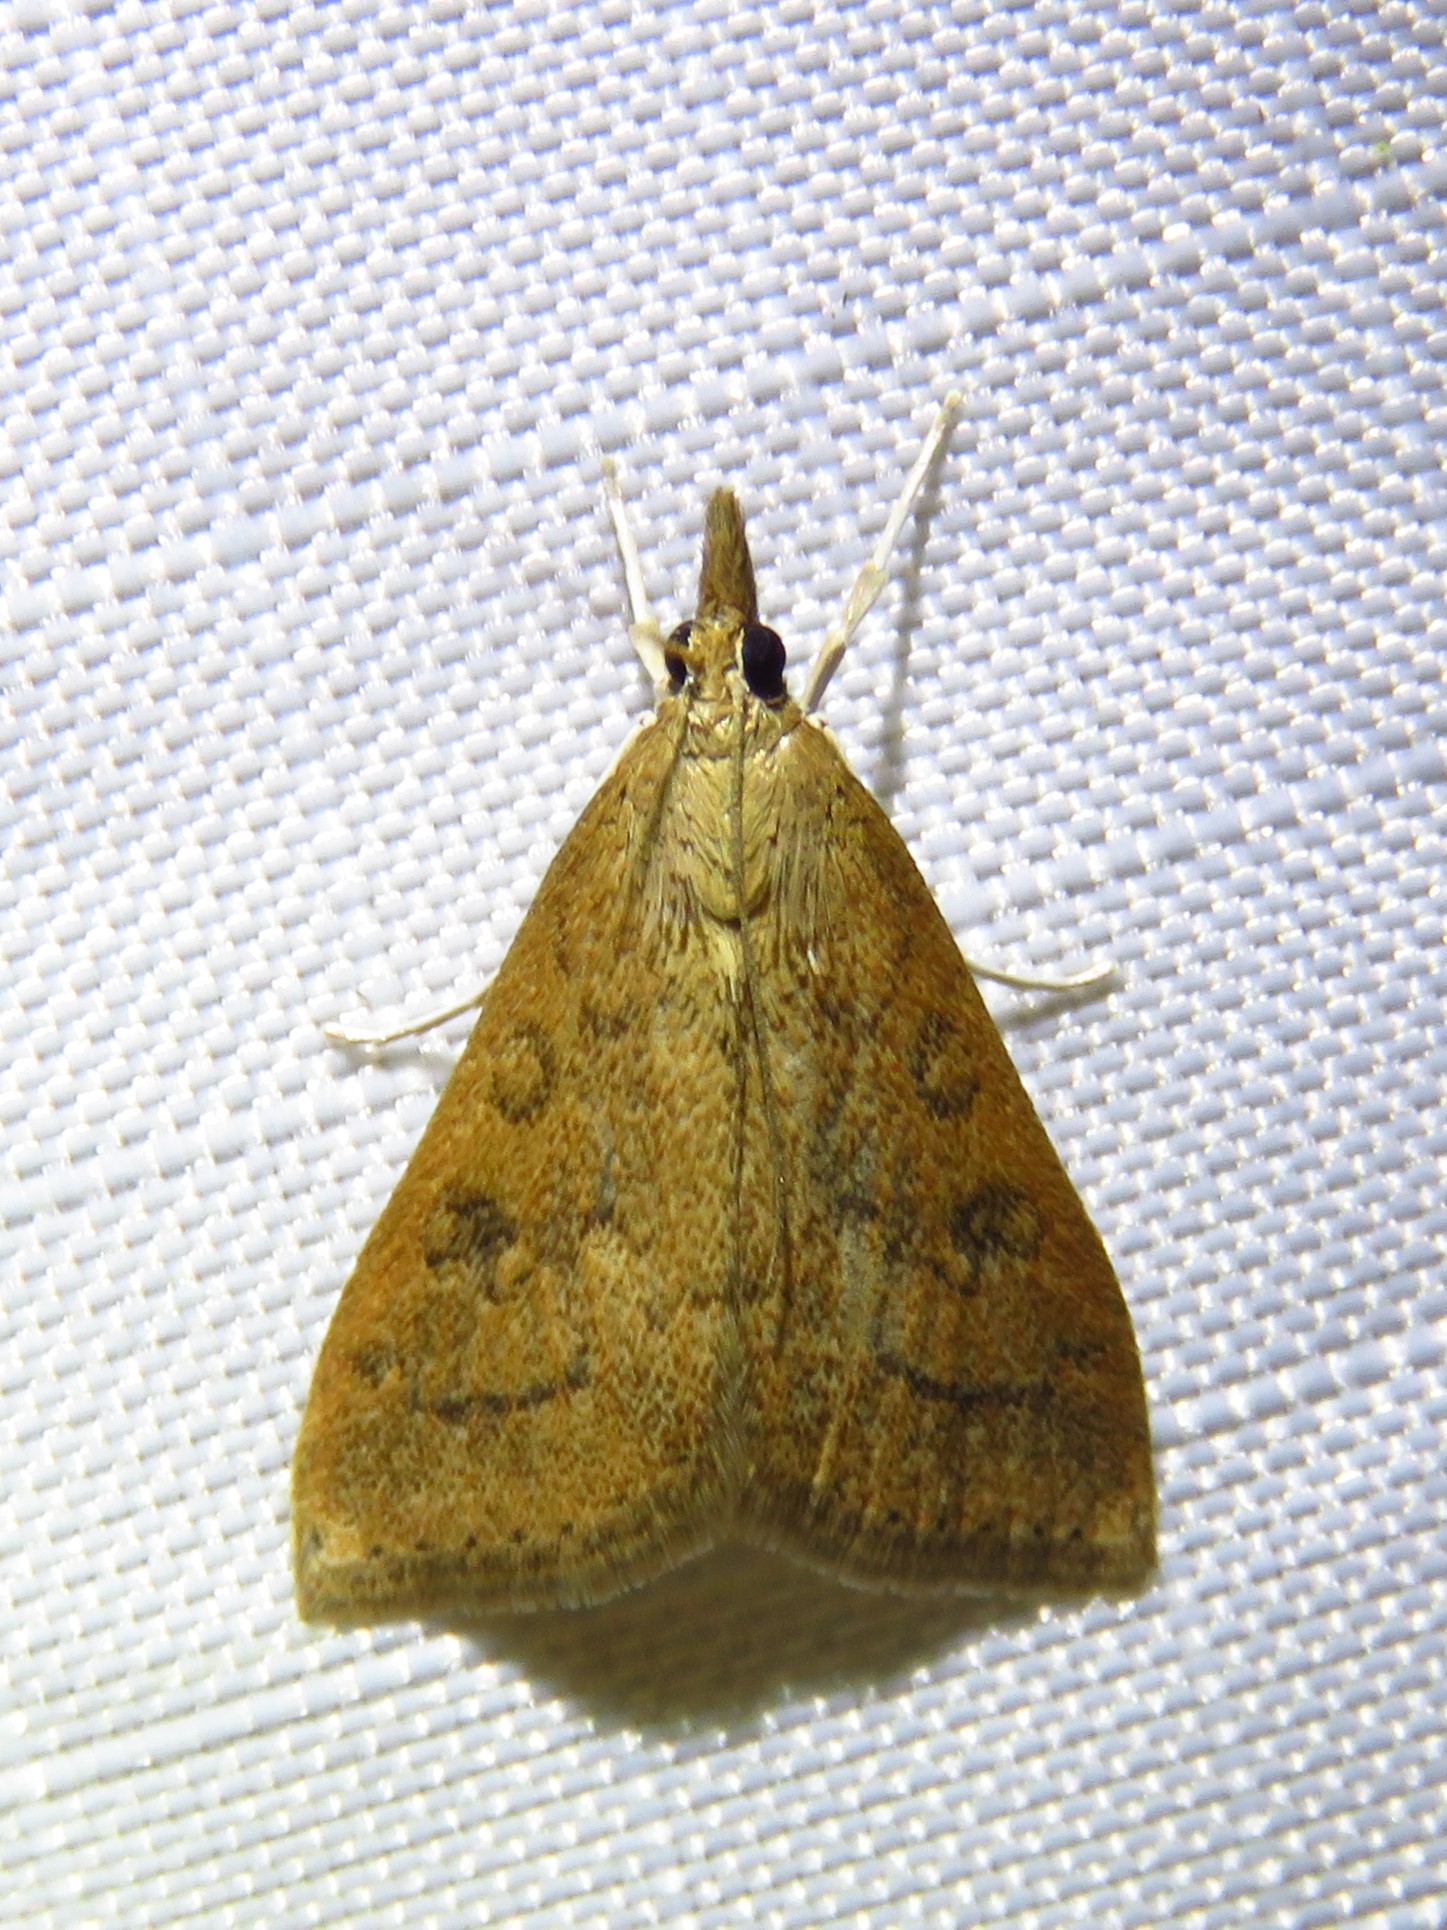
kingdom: Animalia
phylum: Arthropoda
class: Insecta
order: Lepidoptera
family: Crambidae
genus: Udea
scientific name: Udea rubigalis
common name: Celery leaftier moth
